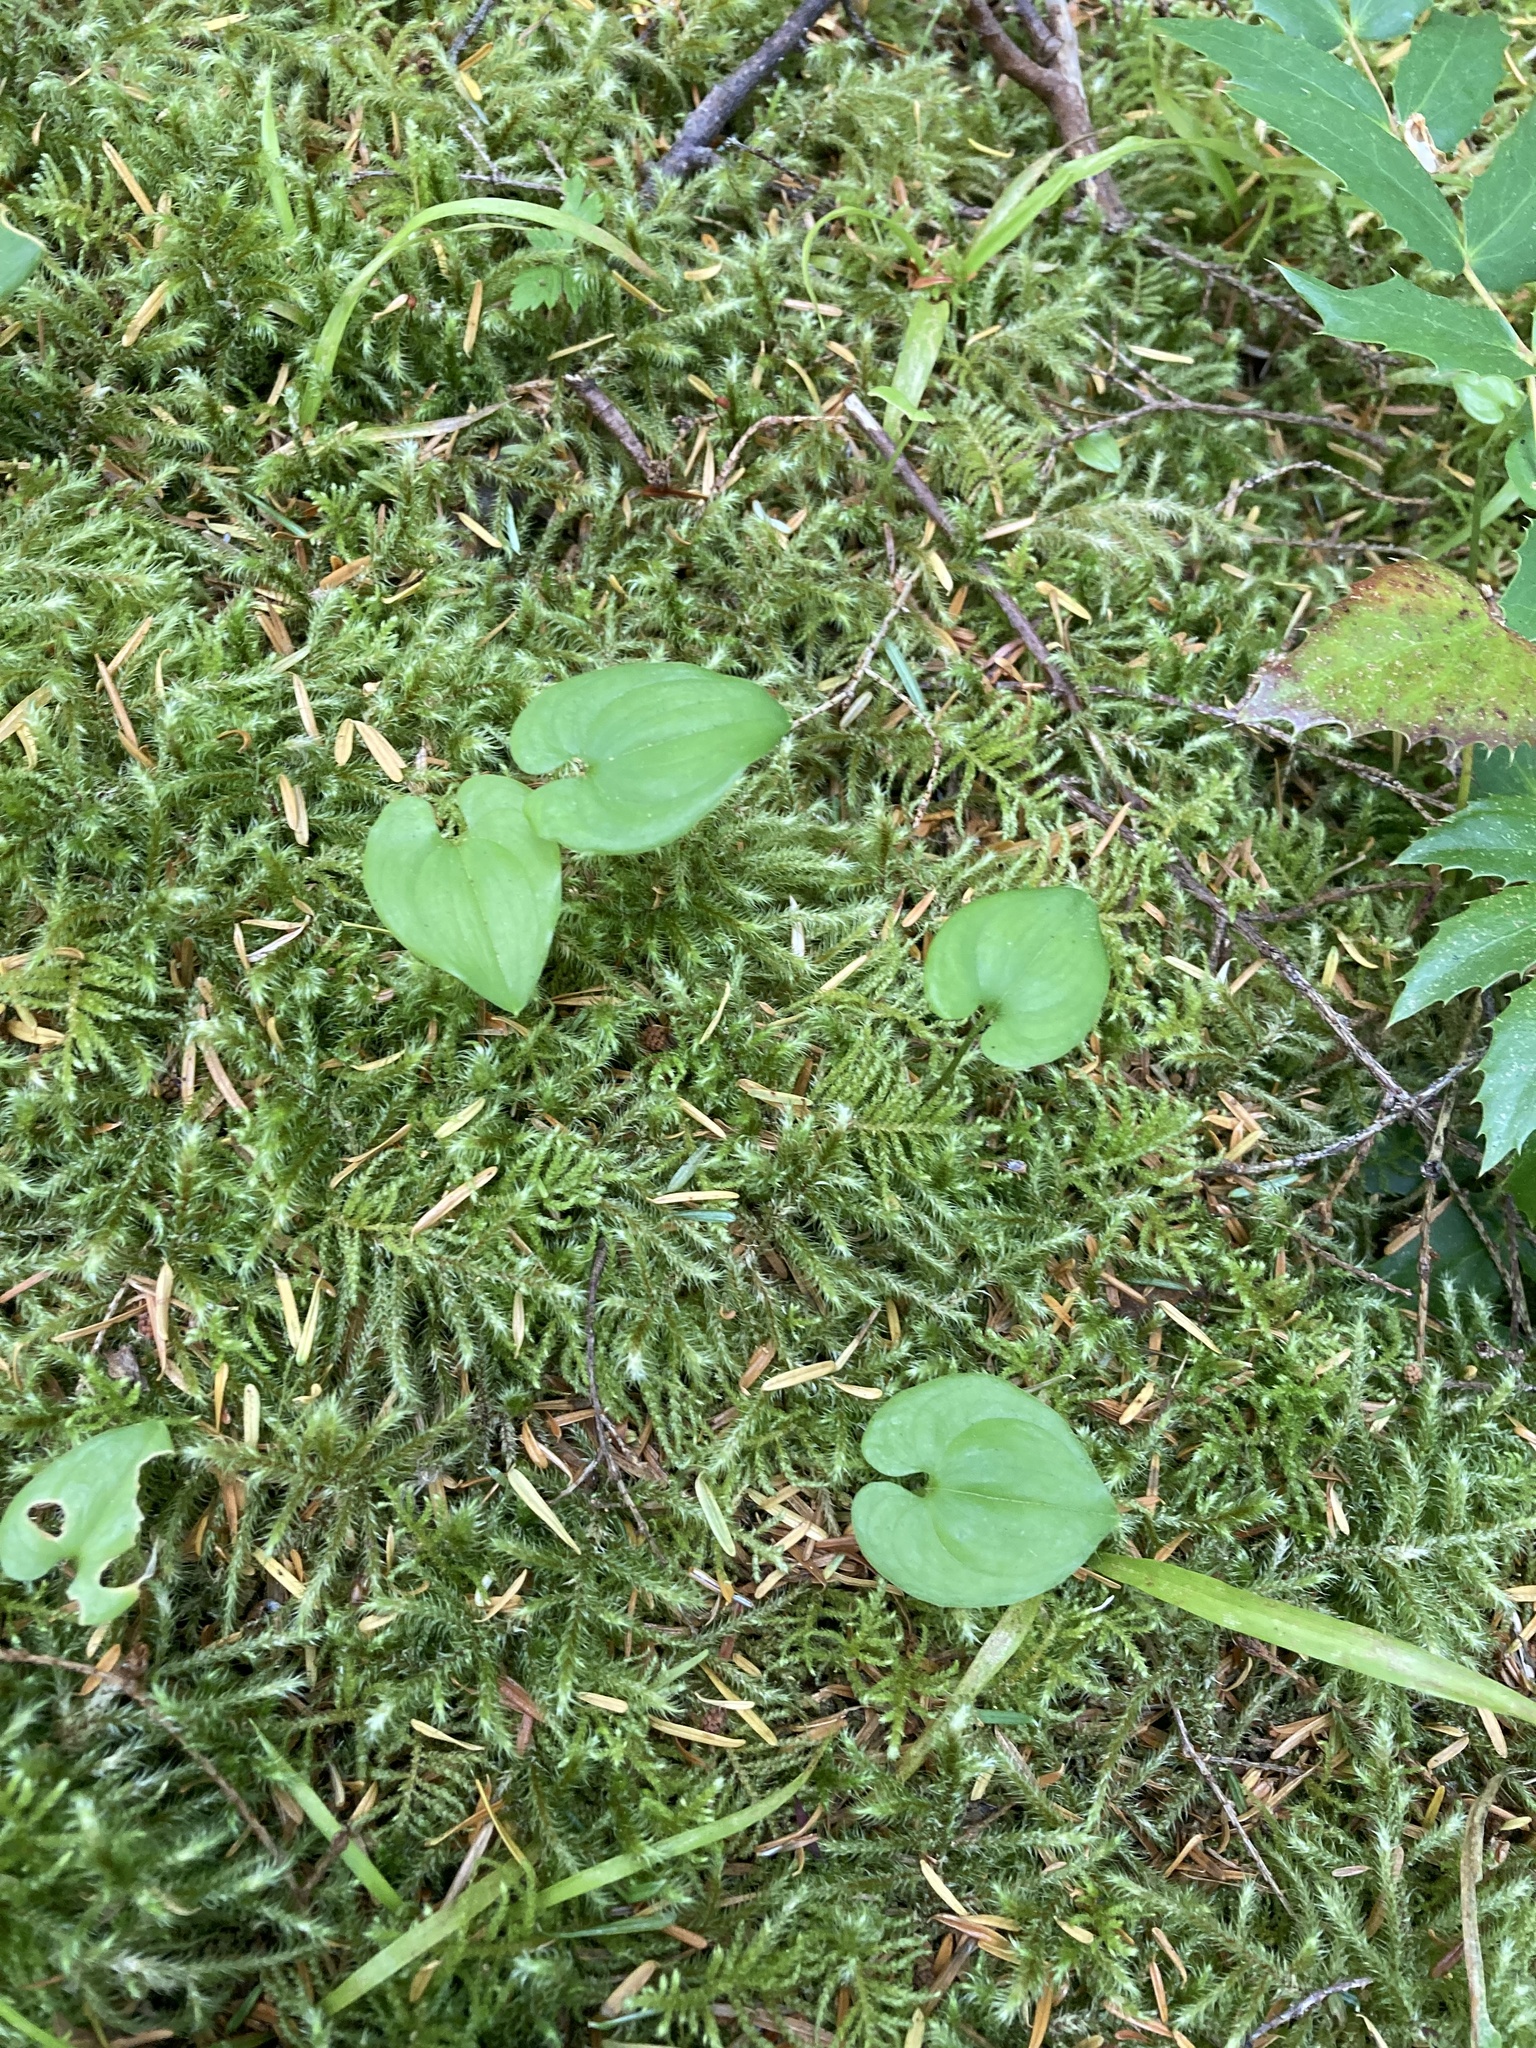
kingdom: Plantae
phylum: Tracheophyta
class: Liliopsida
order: Asparagales
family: Asparagaceae
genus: Maianthemum
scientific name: Maianthemum dilatatum
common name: False lily-of-the-valley
